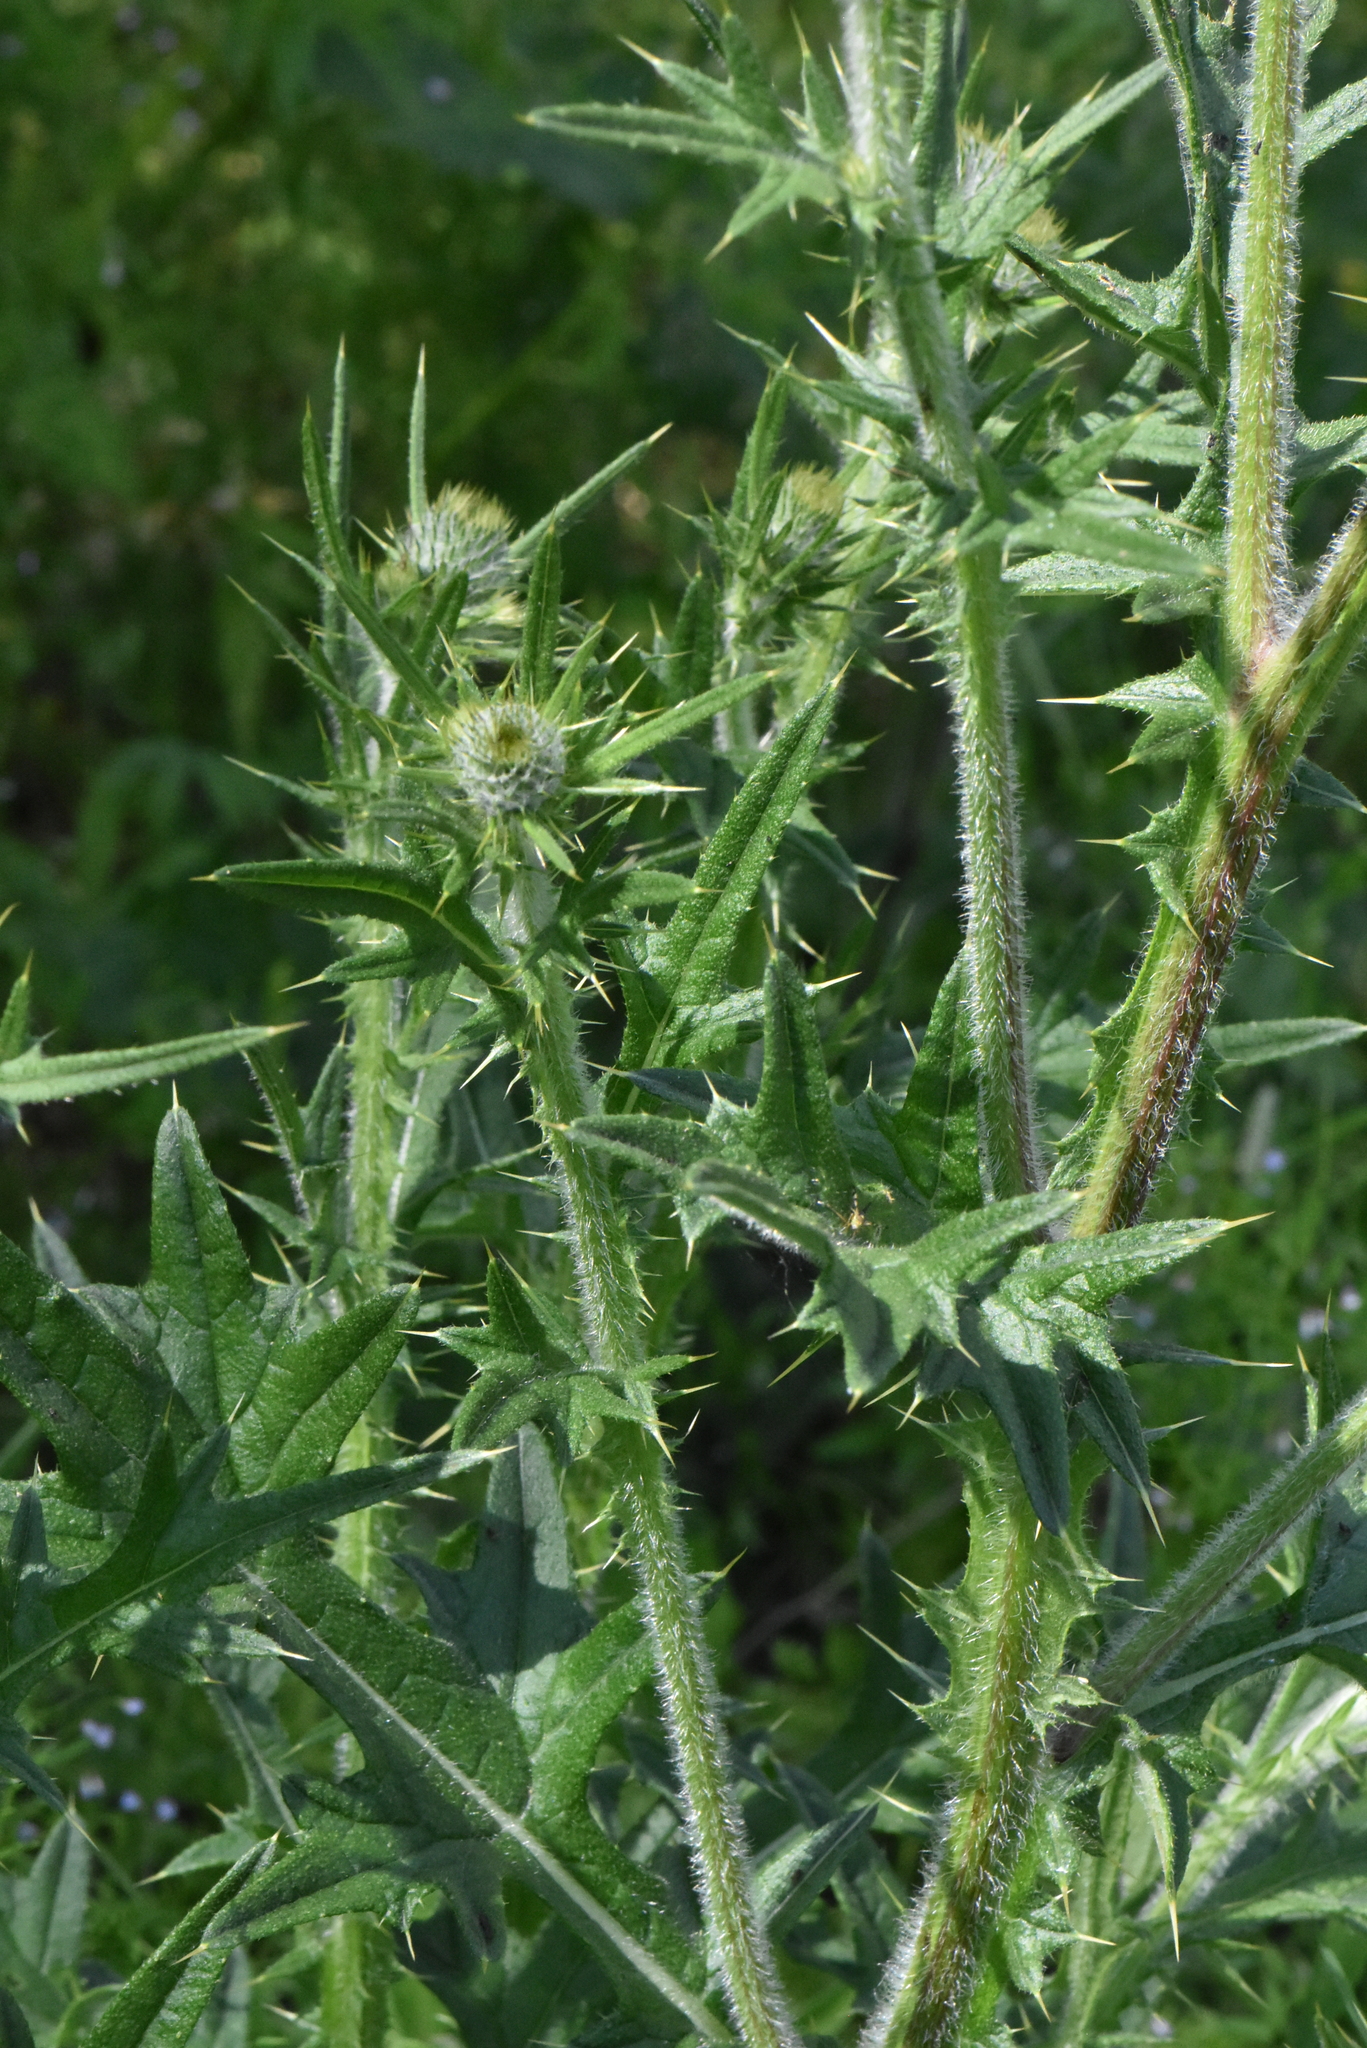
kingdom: Plantae
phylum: Tracheophyta
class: Magnoliopsida
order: Asterales
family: Asteraceae
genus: Cirsium
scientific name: Cirsium vulgare
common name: Bull thistle
